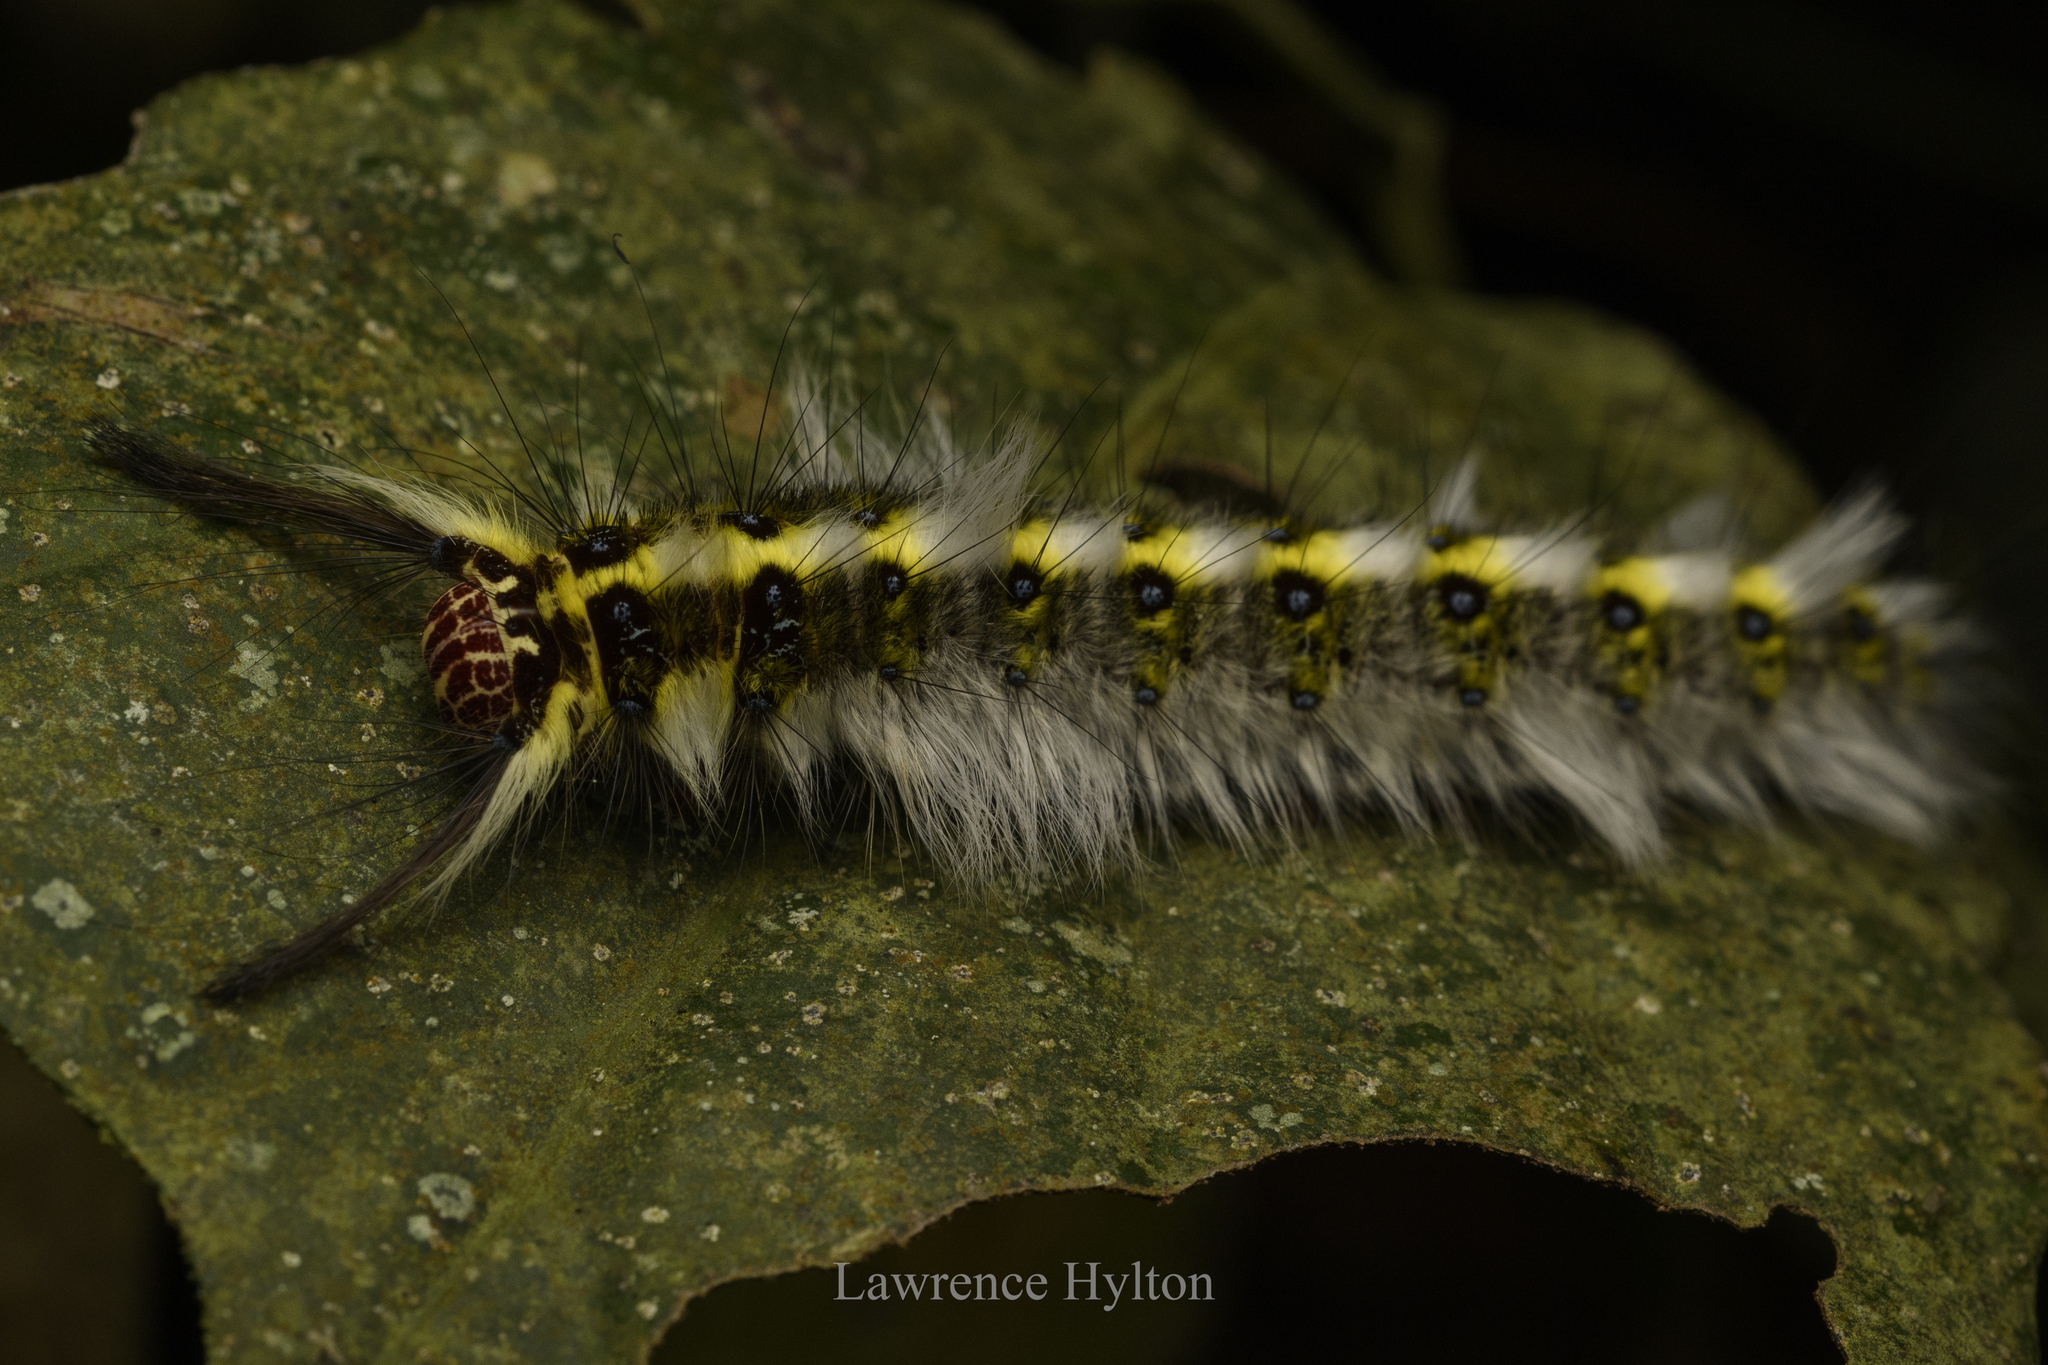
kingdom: Animalia
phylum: Arthropoda
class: Insecta
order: Lepidoptera
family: Lasiocampidae
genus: Trabala
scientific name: Trabala pallida
